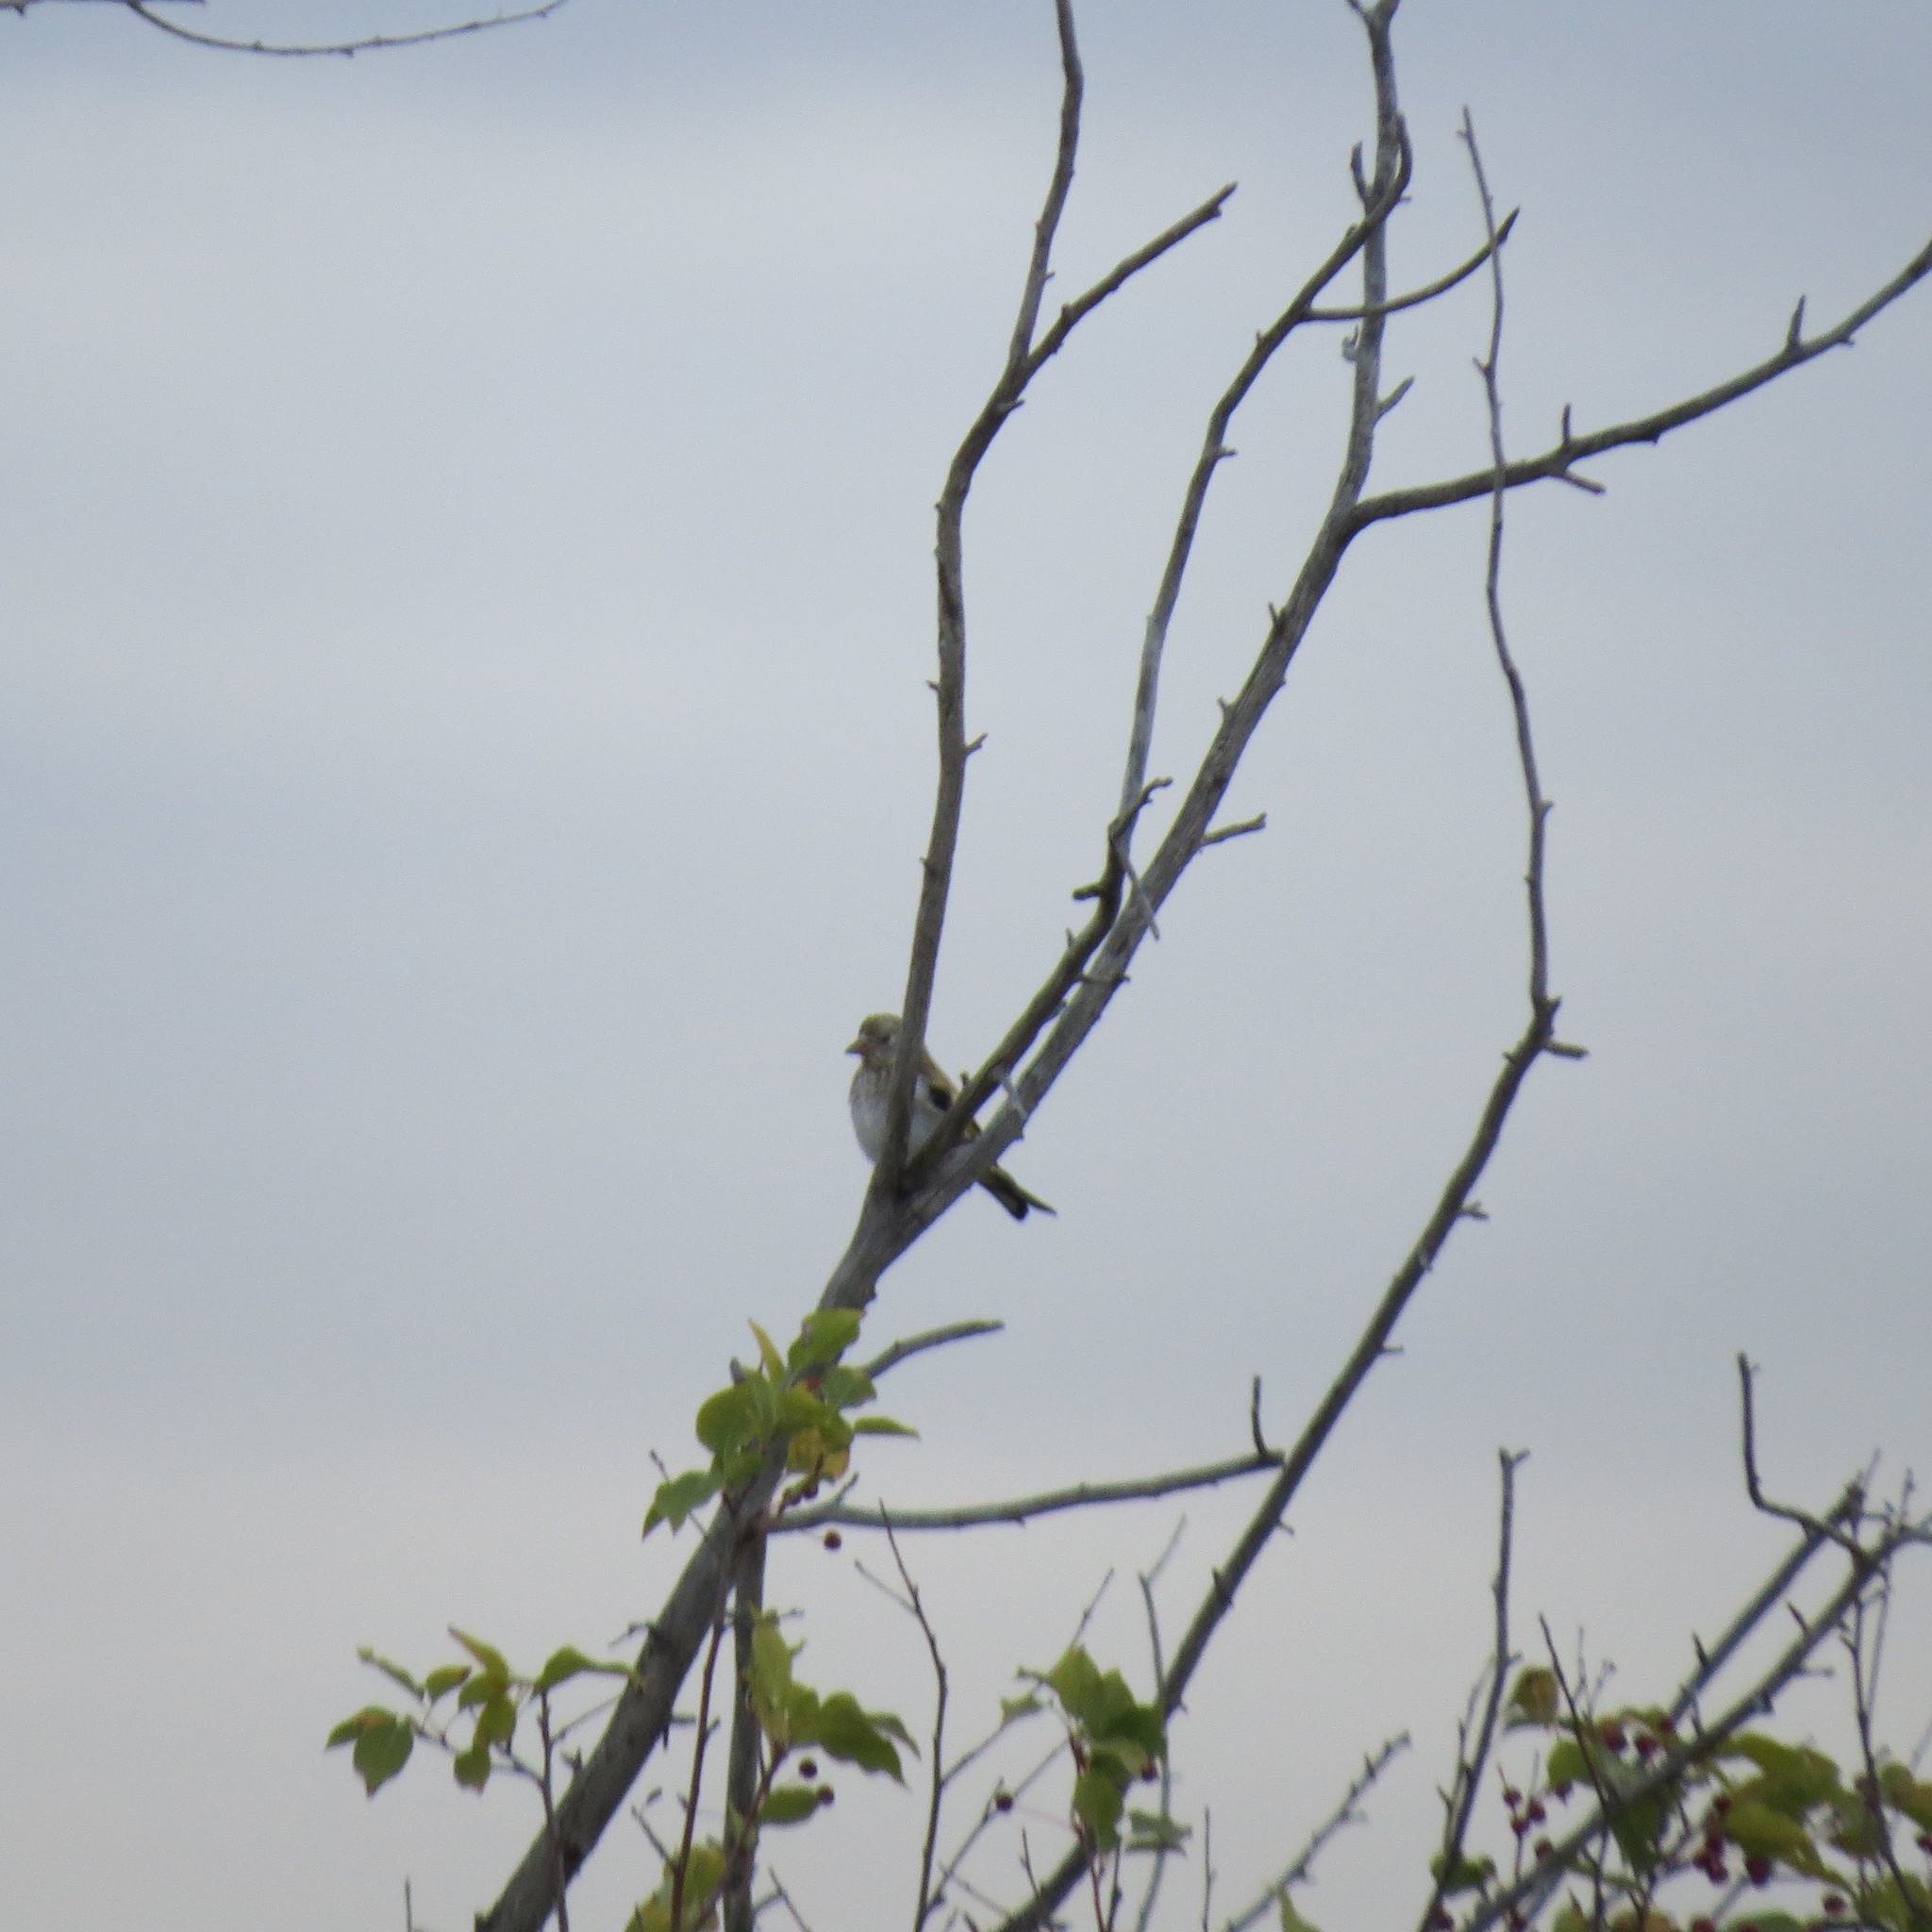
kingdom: Animalia
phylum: Chordata
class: Aves
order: Passeriformes
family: Fringillidae
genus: Carduelis
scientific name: Carduelis carduelis
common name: European goldfinch
